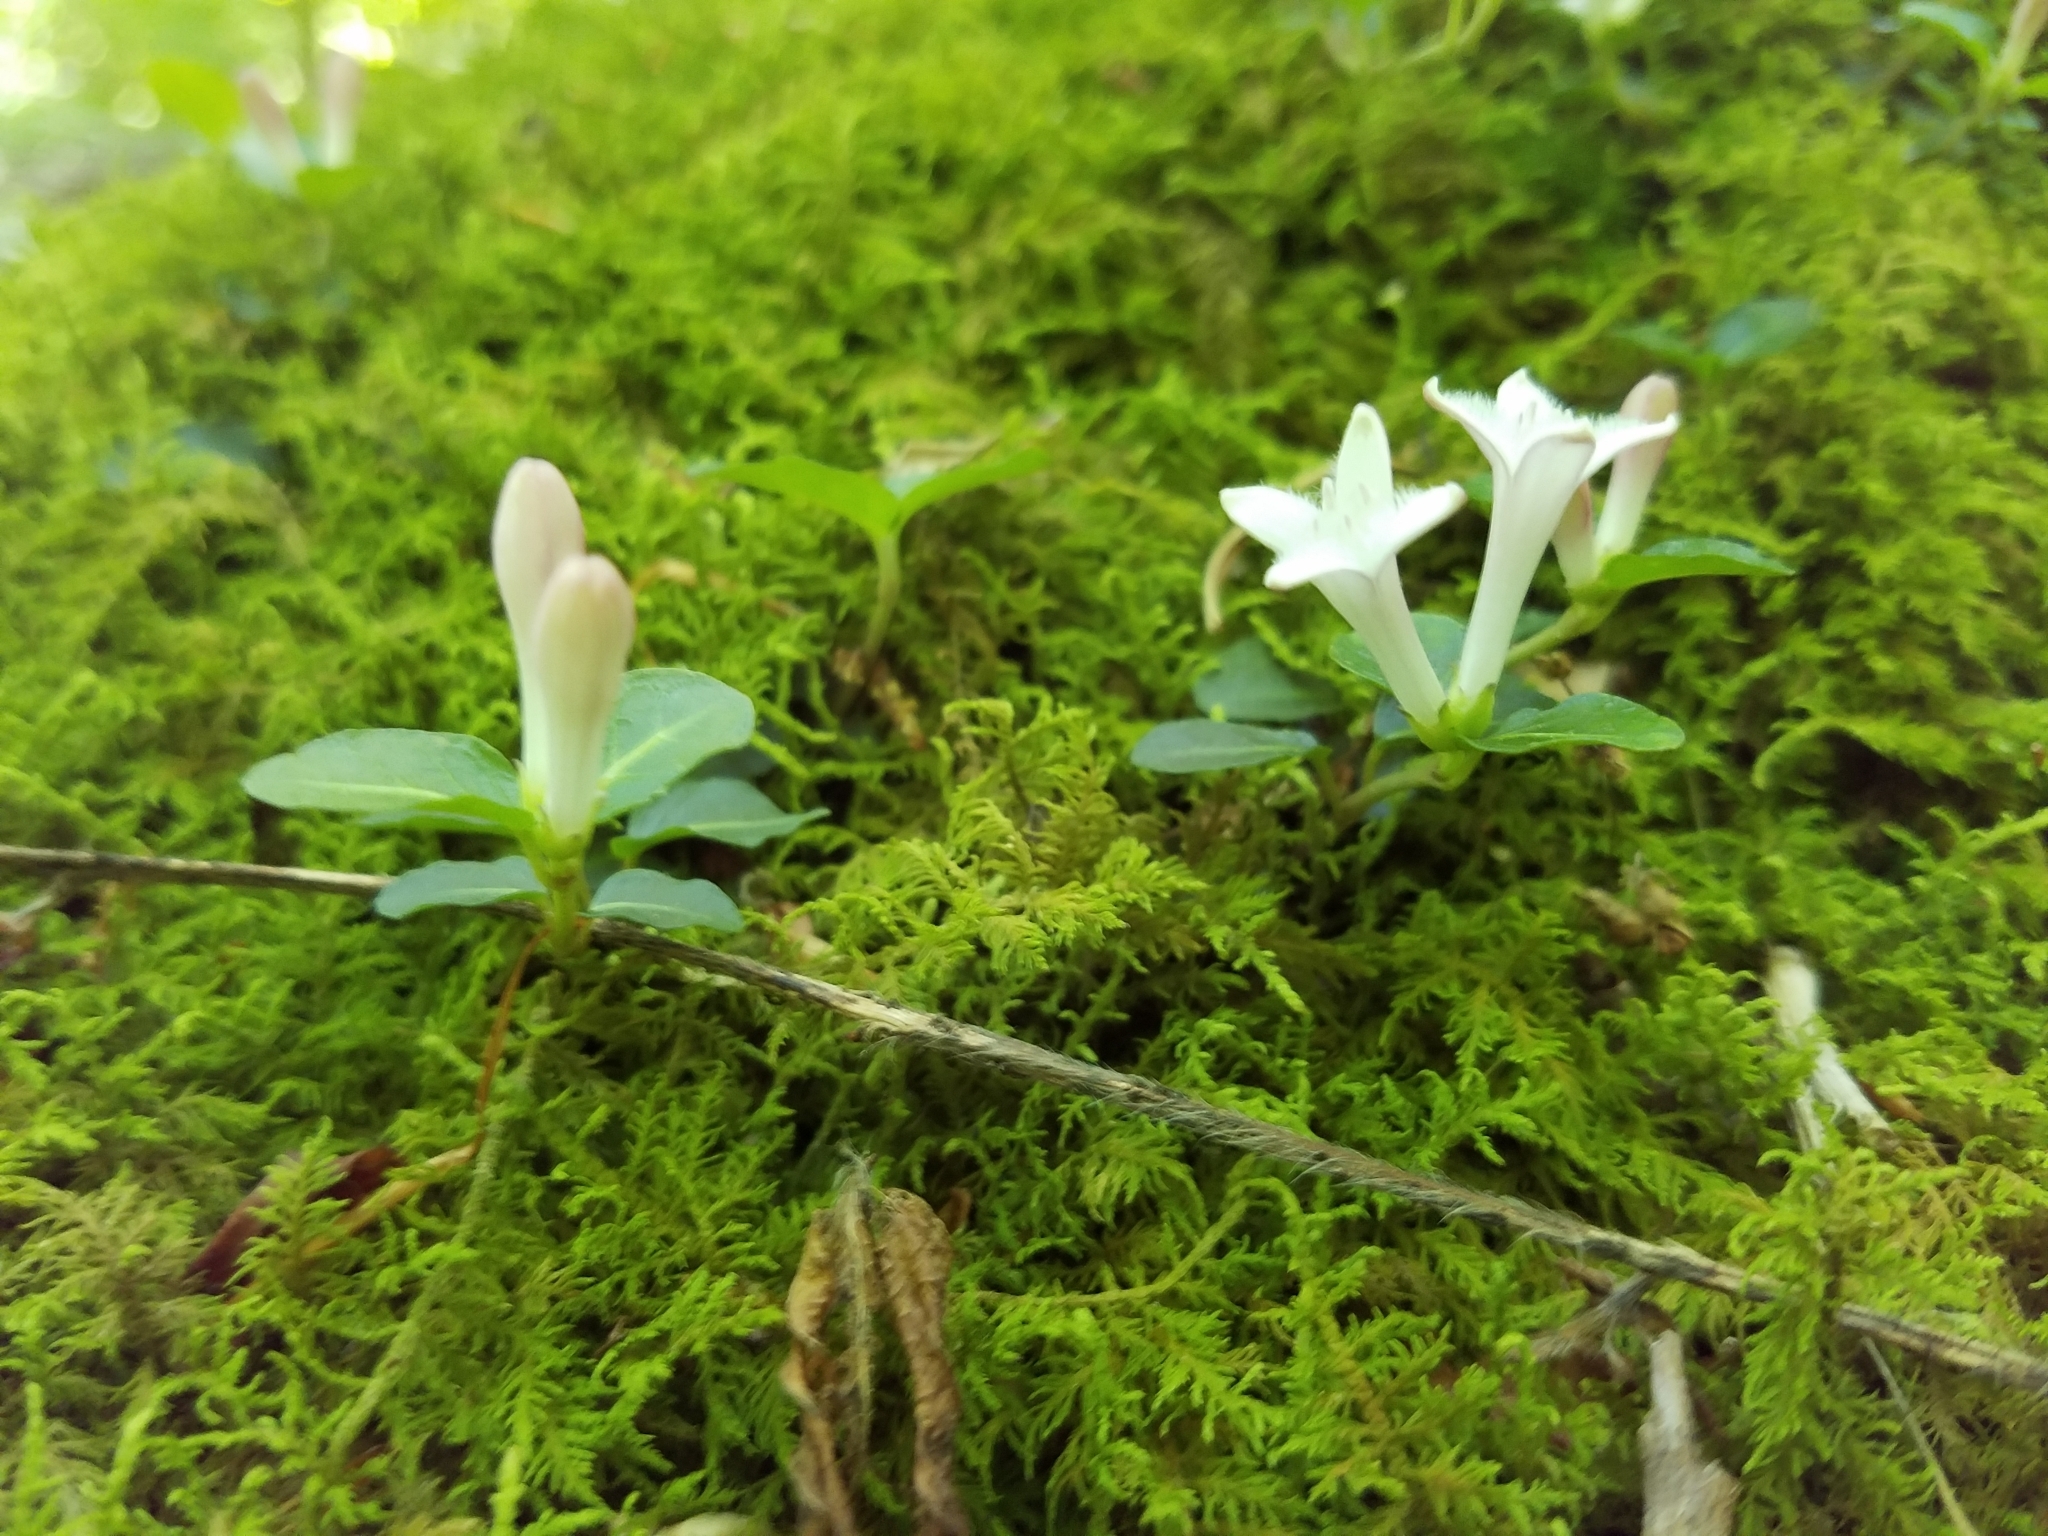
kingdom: Plantae
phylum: Tracheophyta
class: Magnoliopsida
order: Gentianales
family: Rubiaceae
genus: Mitchella
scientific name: Mitchella repens
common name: Partridge-berry
